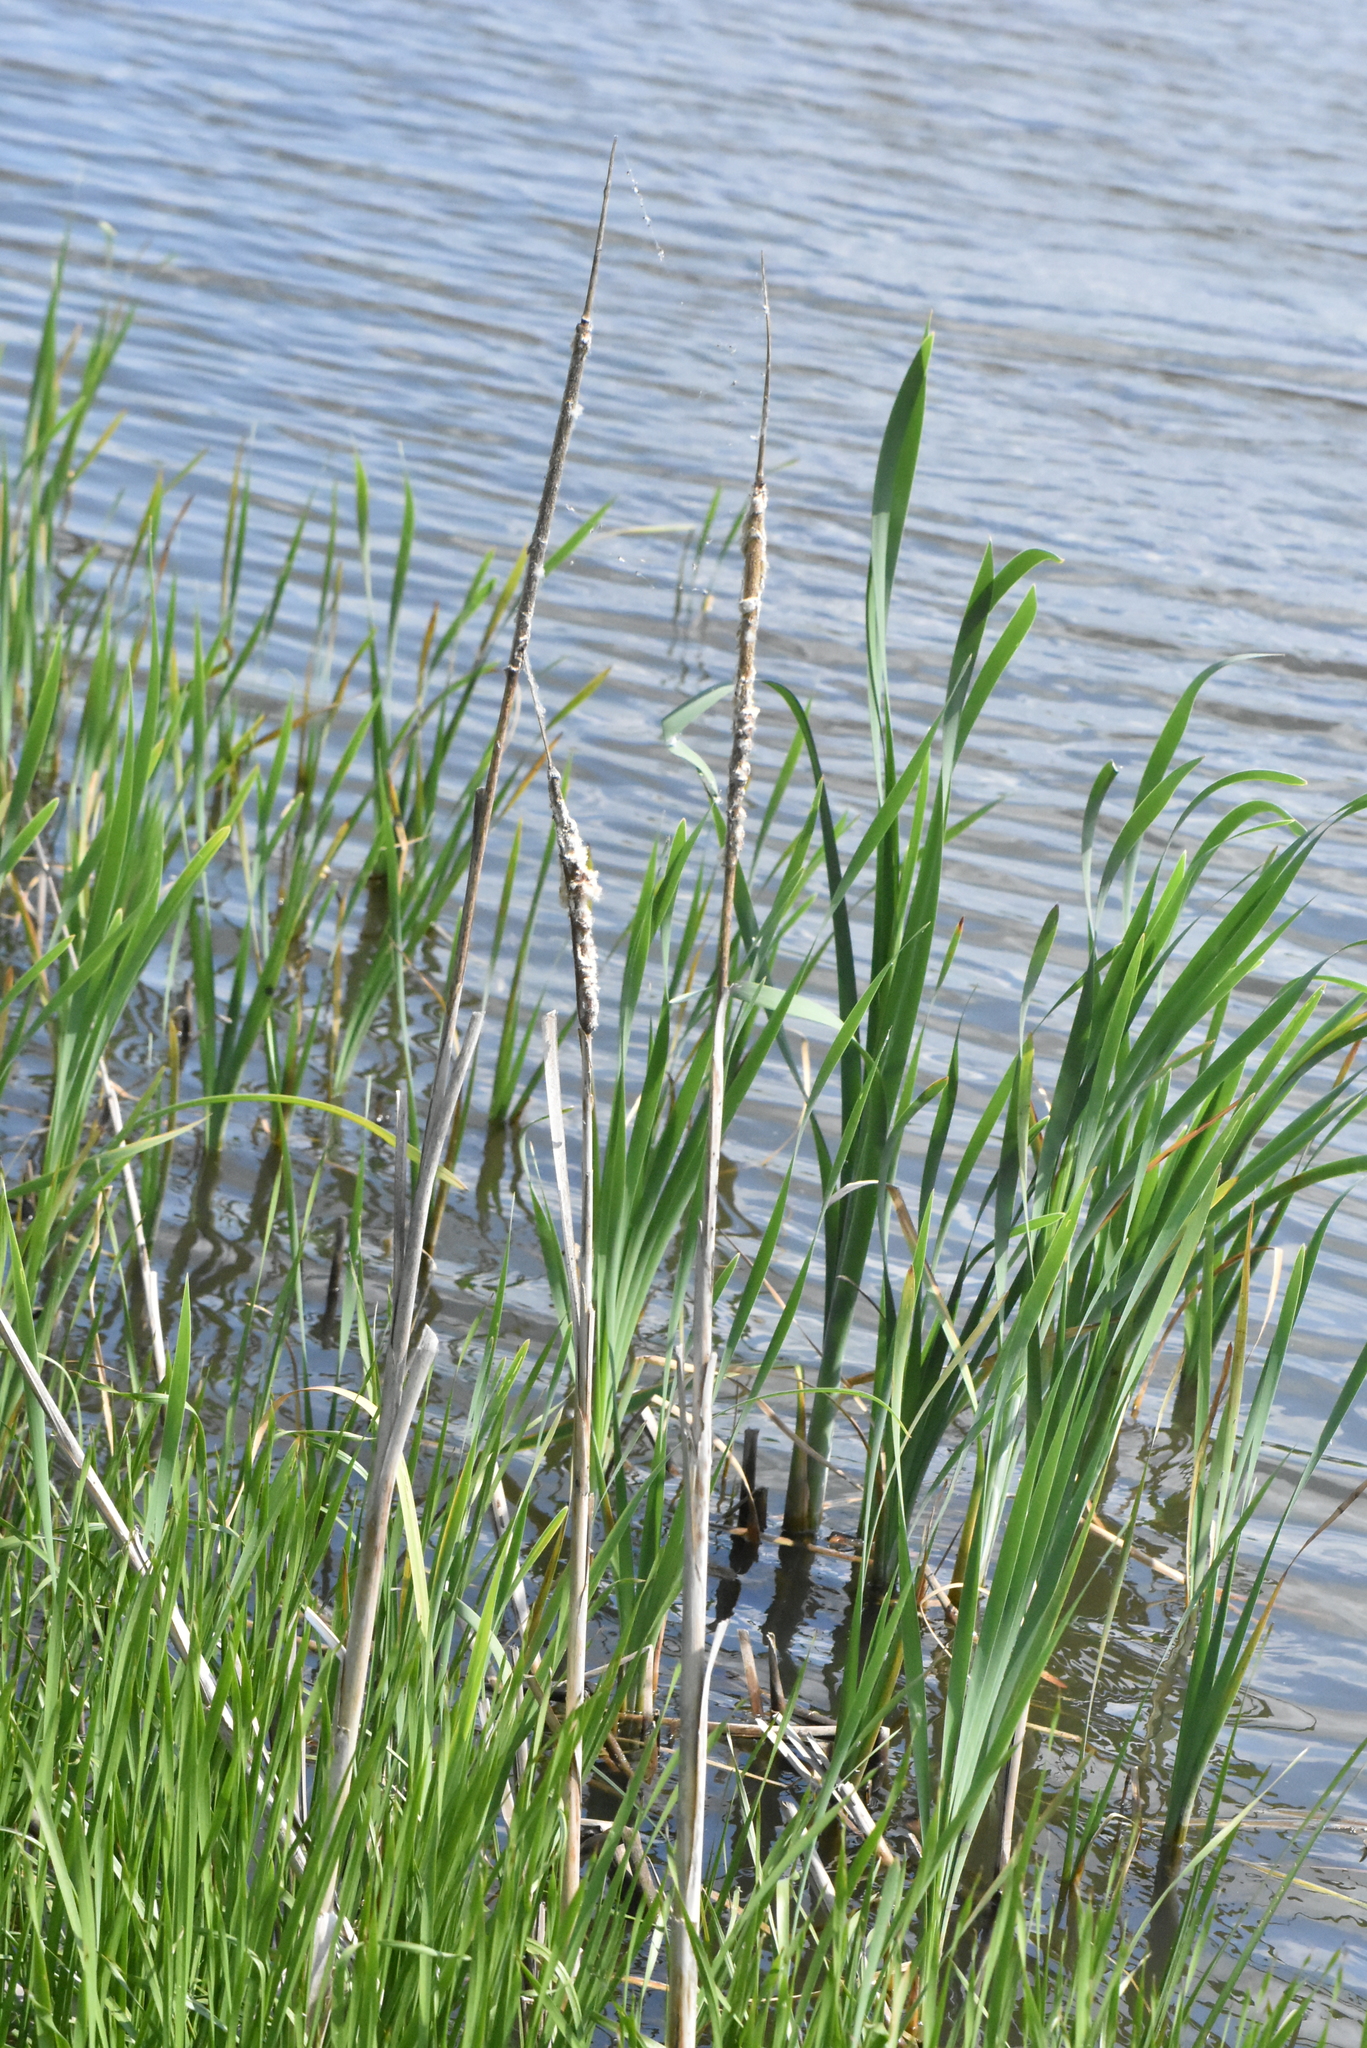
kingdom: Plantae
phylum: Tracheophyta
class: Liliopsida
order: Poales
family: Typhaceae
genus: Typha
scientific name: Typha latifolia
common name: Broadleaf cattail
